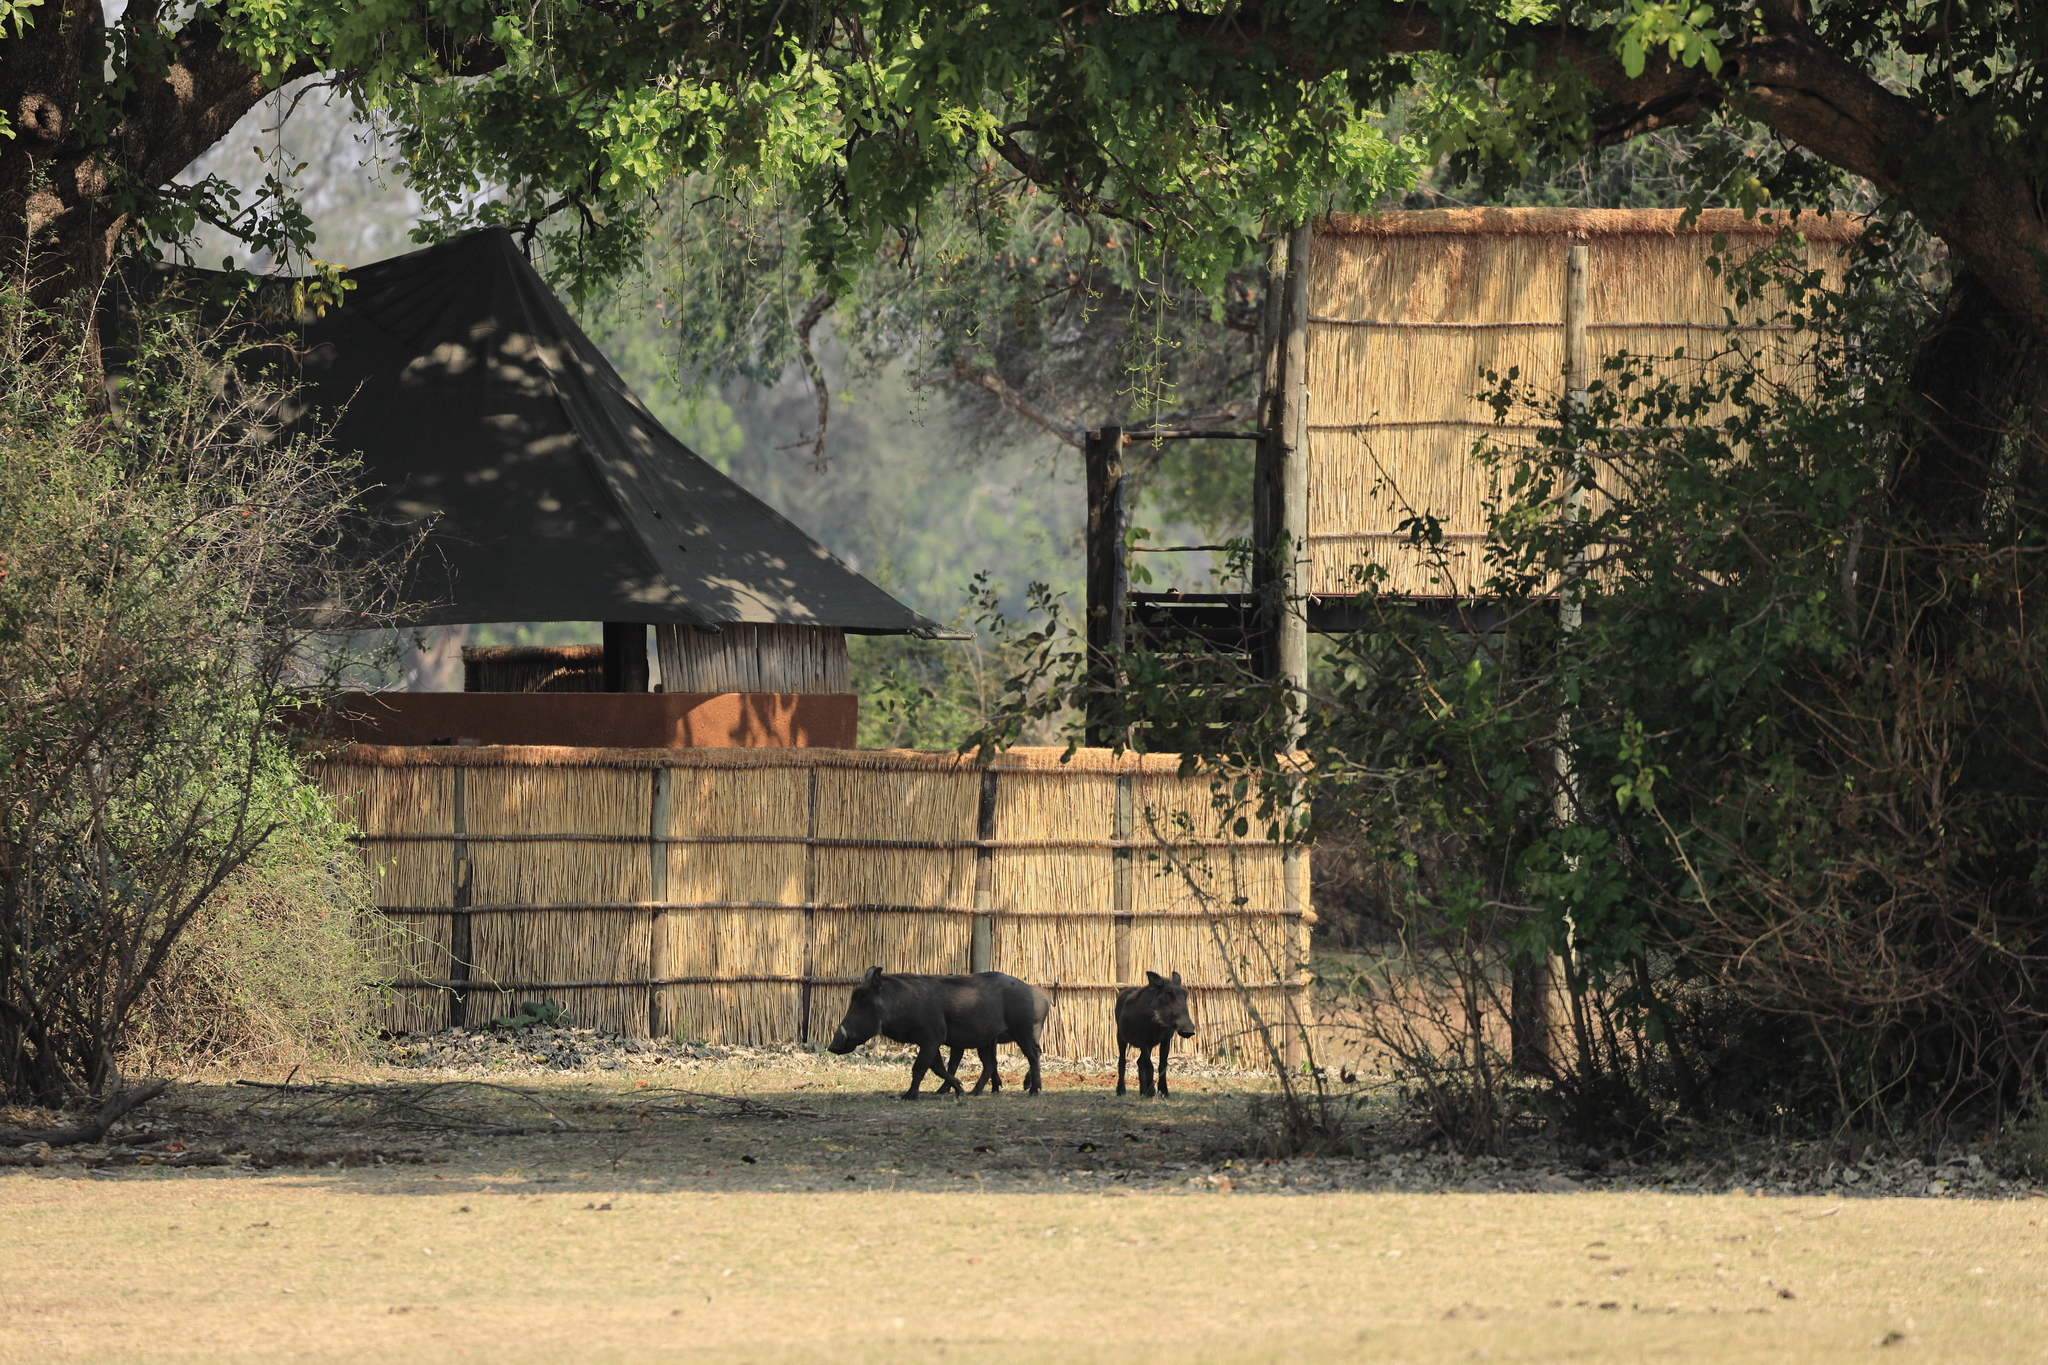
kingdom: Animalia
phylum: Chordata
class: Mammalia
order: Artiodactyla
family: Suidae
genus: Phacochoerus
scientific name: Phacochoerus africanus
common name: Common warthog
